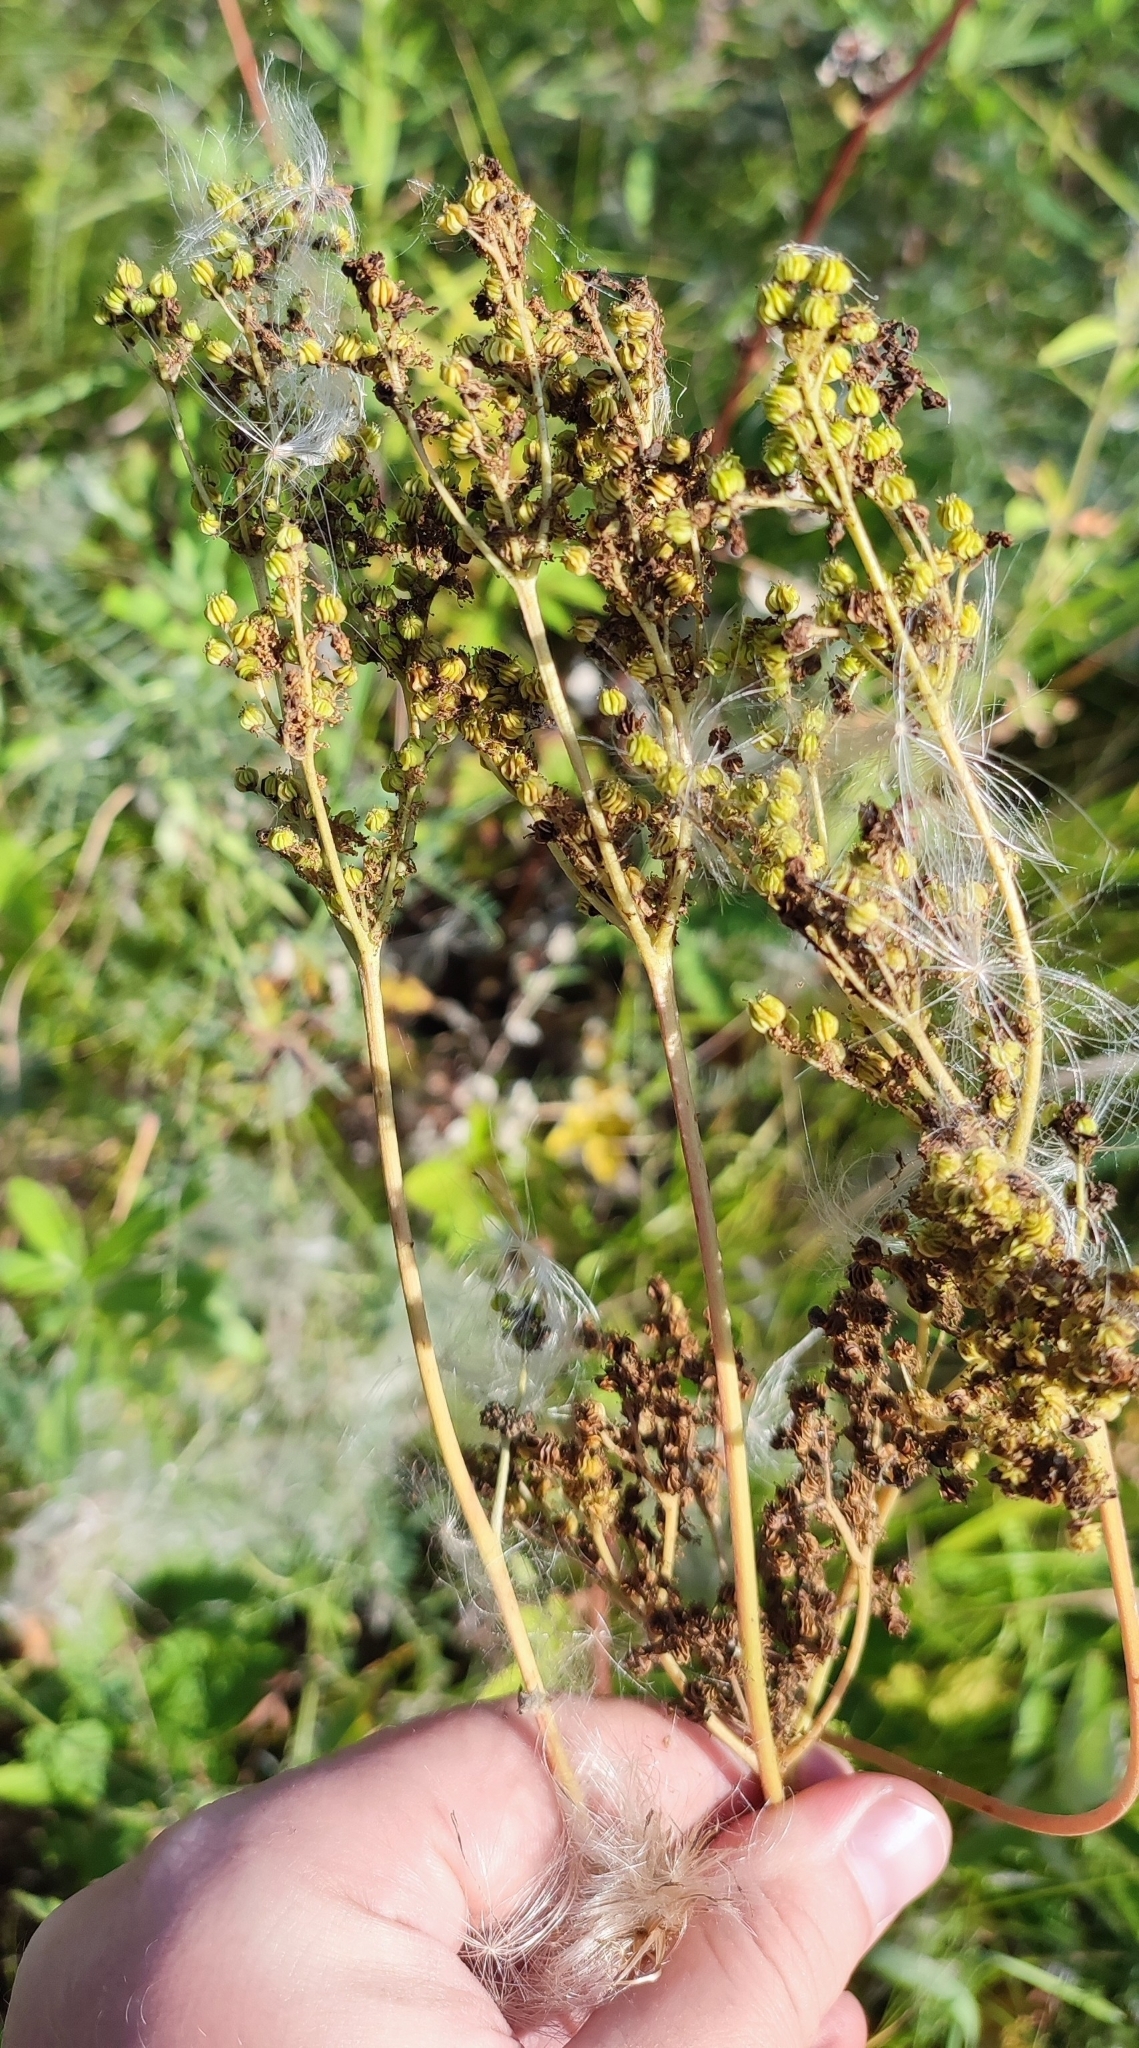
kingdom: Plantae
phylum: Tracheophyta
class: Magnoliopsida
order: Rosales
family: Rosaceae
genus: Filipendula
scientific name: Filipendula ulmaria
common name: Meadowsweet
